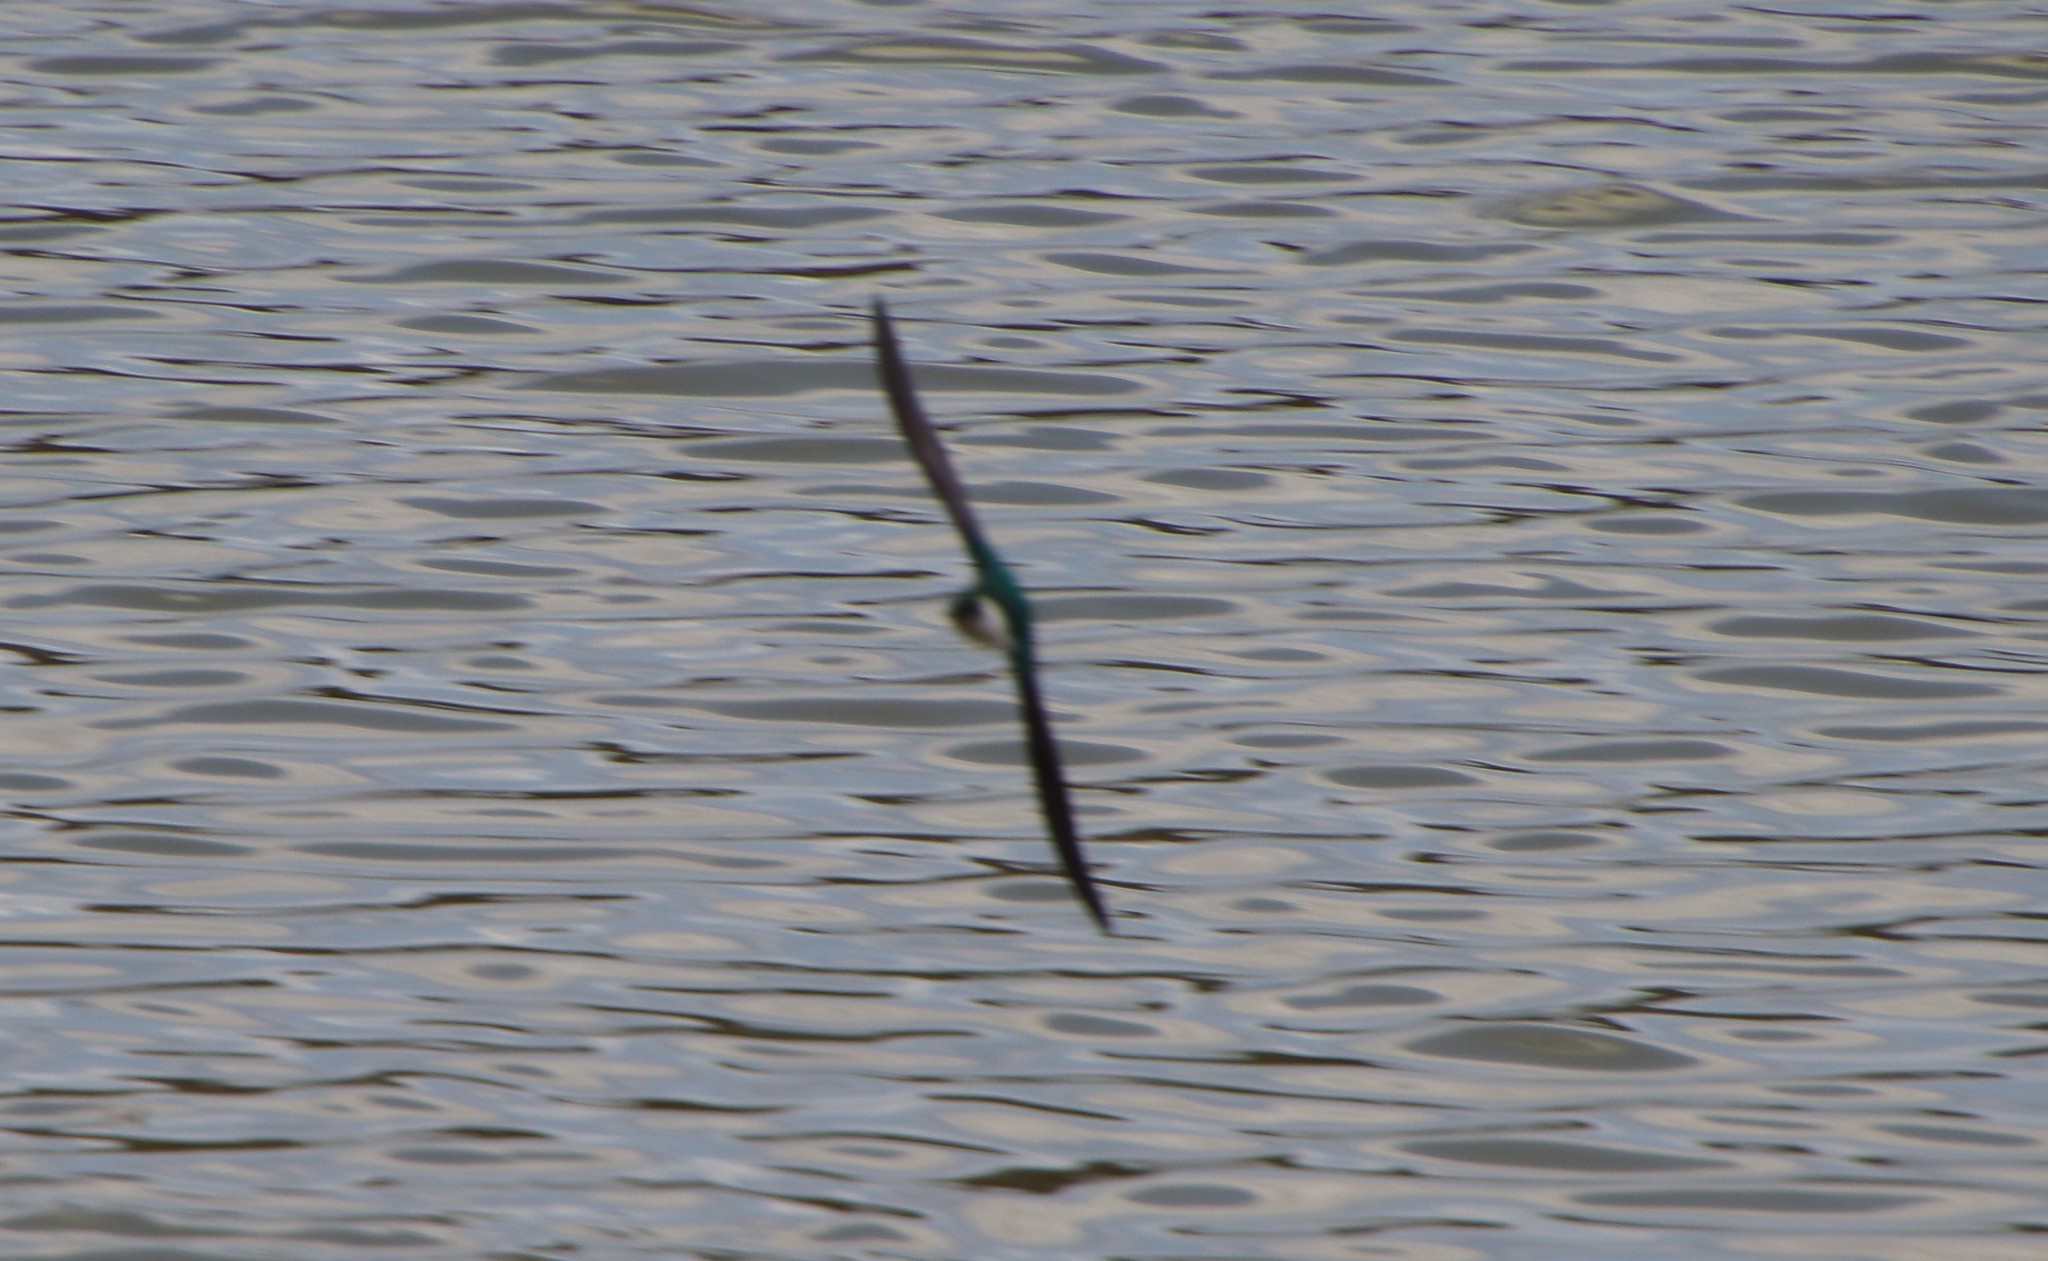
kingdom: Animalia
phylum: Chordata
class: Aves
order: Passeriformes
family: Hirundinidae
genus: Tachycineta
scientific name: Tachycineta thalassina
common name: Violet-green swallow
